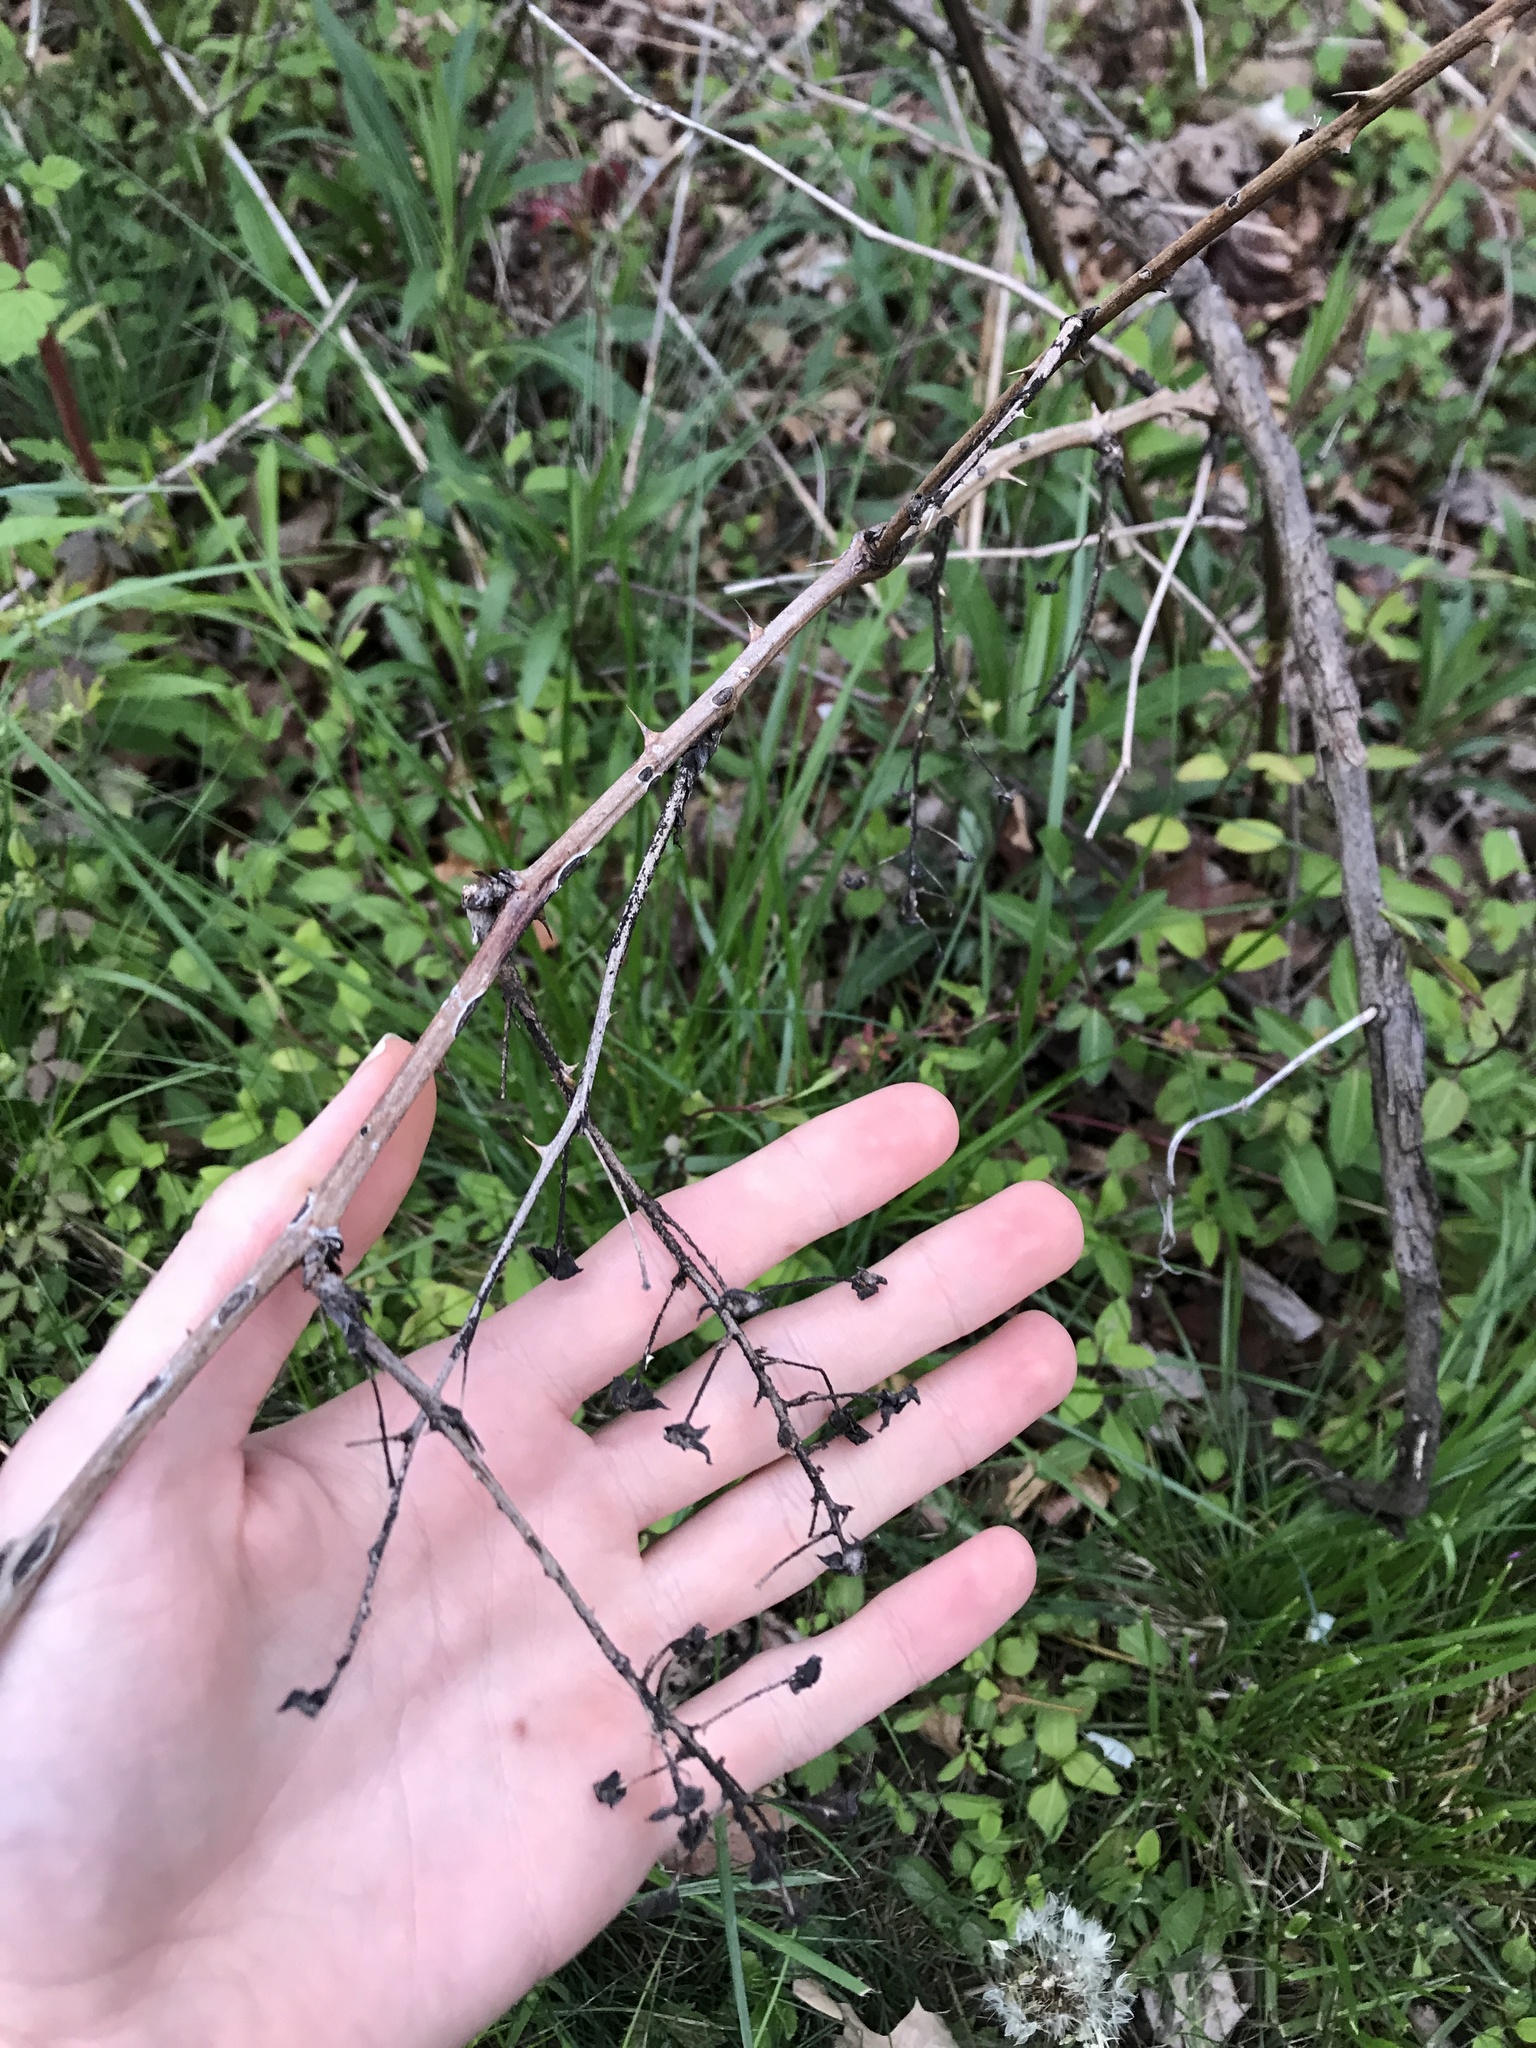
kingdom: Plantae
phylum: Tracheophyta
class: Magnoliopsida
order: Caryophyllales
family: Phytolaccaceae
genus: Phytolacca
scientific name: Phytolacca americana
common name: American pokeweed
